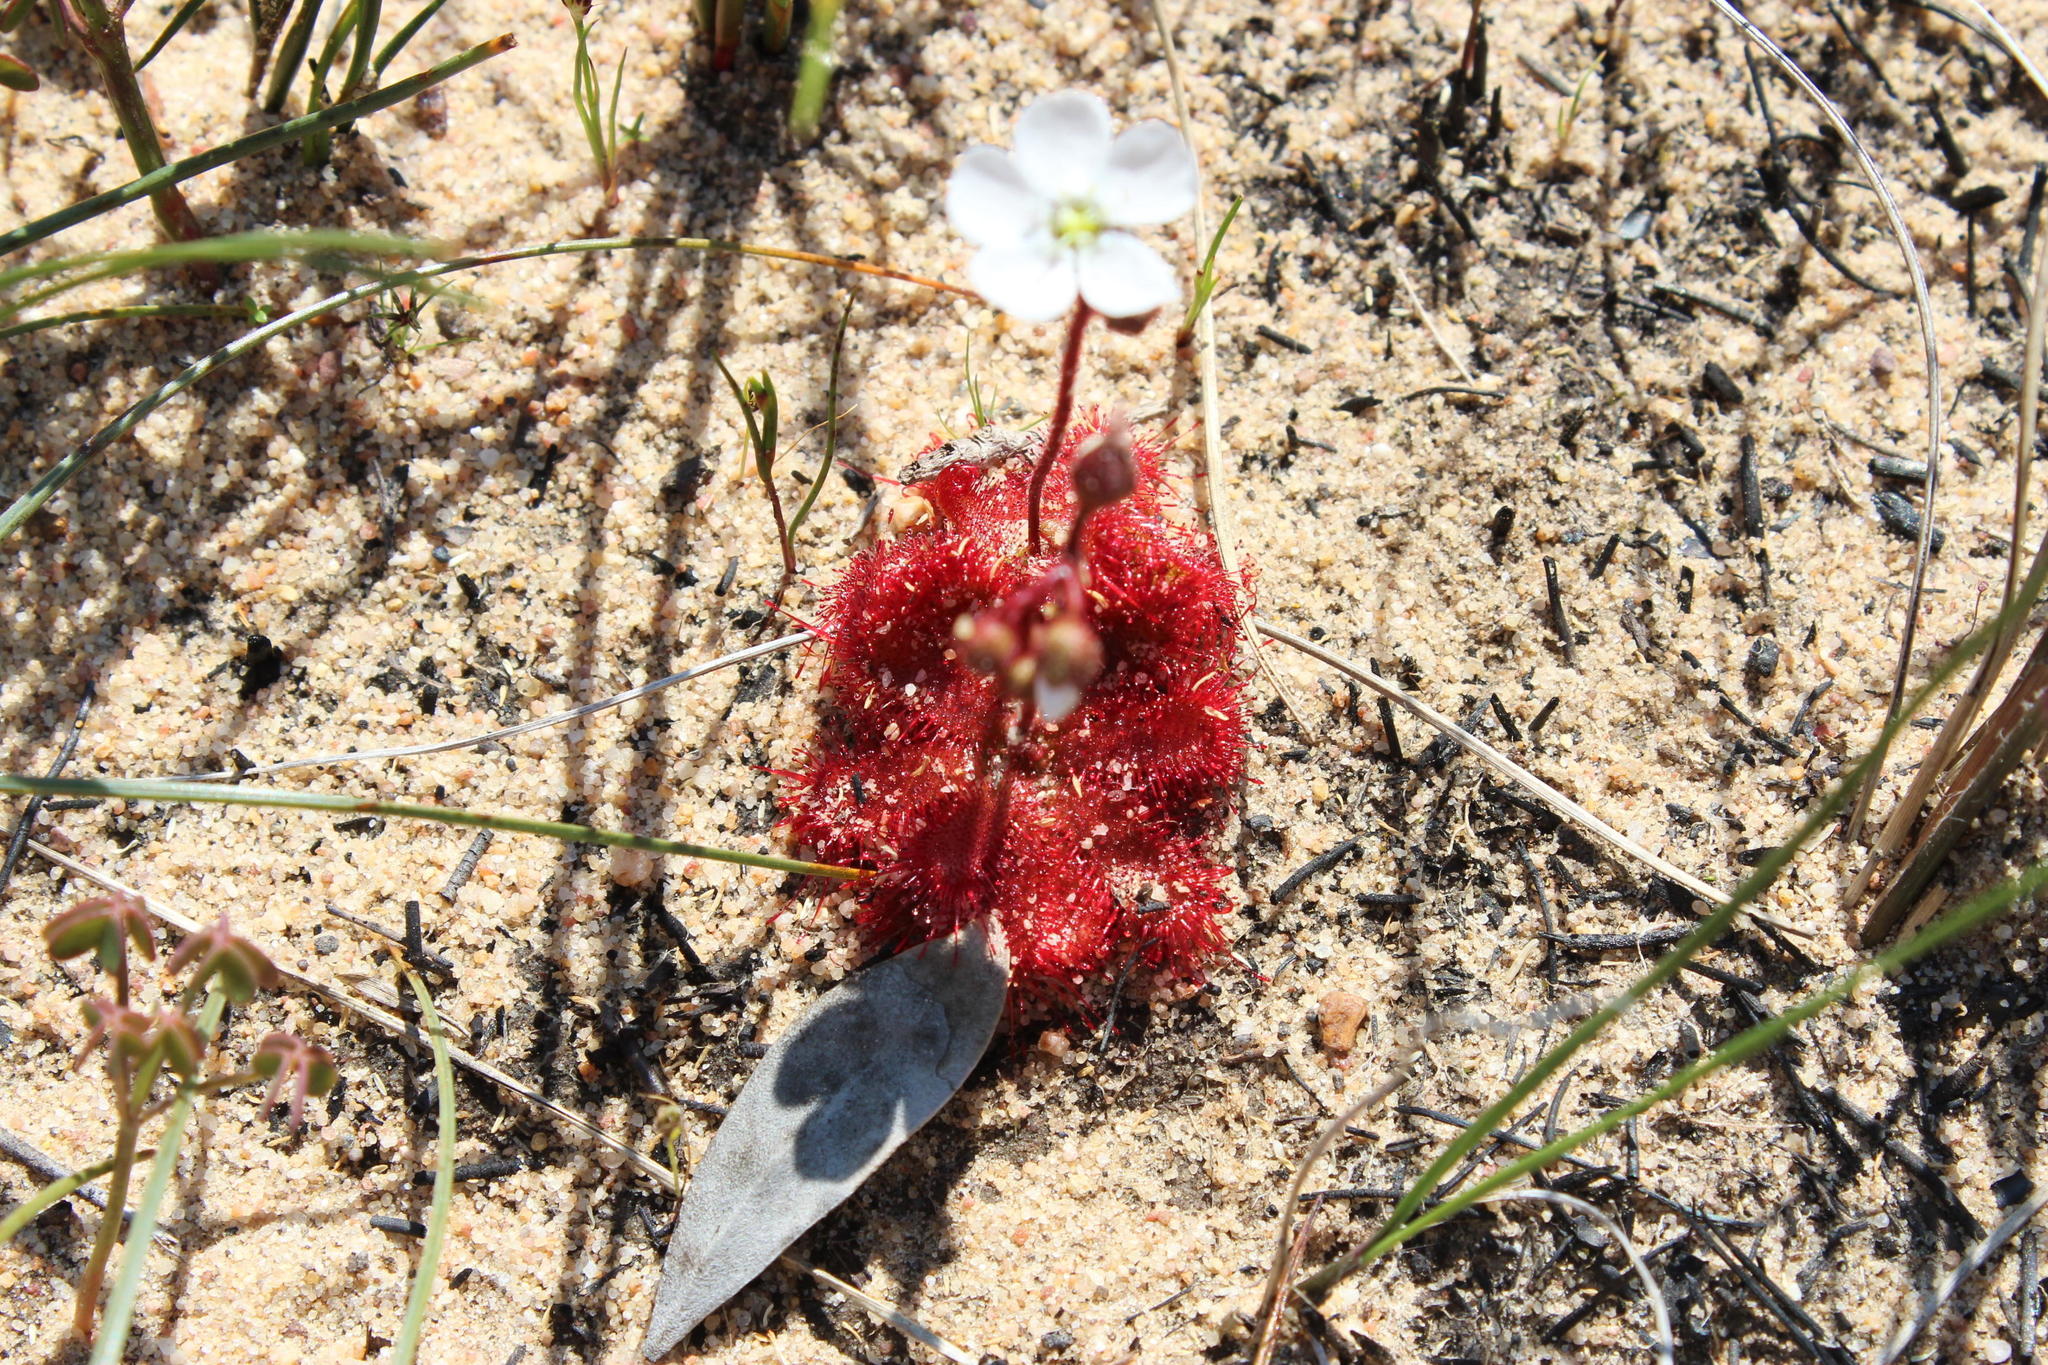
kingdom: Plantae
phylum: Tracheophyta
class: Magnoliopsida
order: Caryophyllales
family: Droseraceae
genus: Drosera
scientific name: Drosera trinervia
